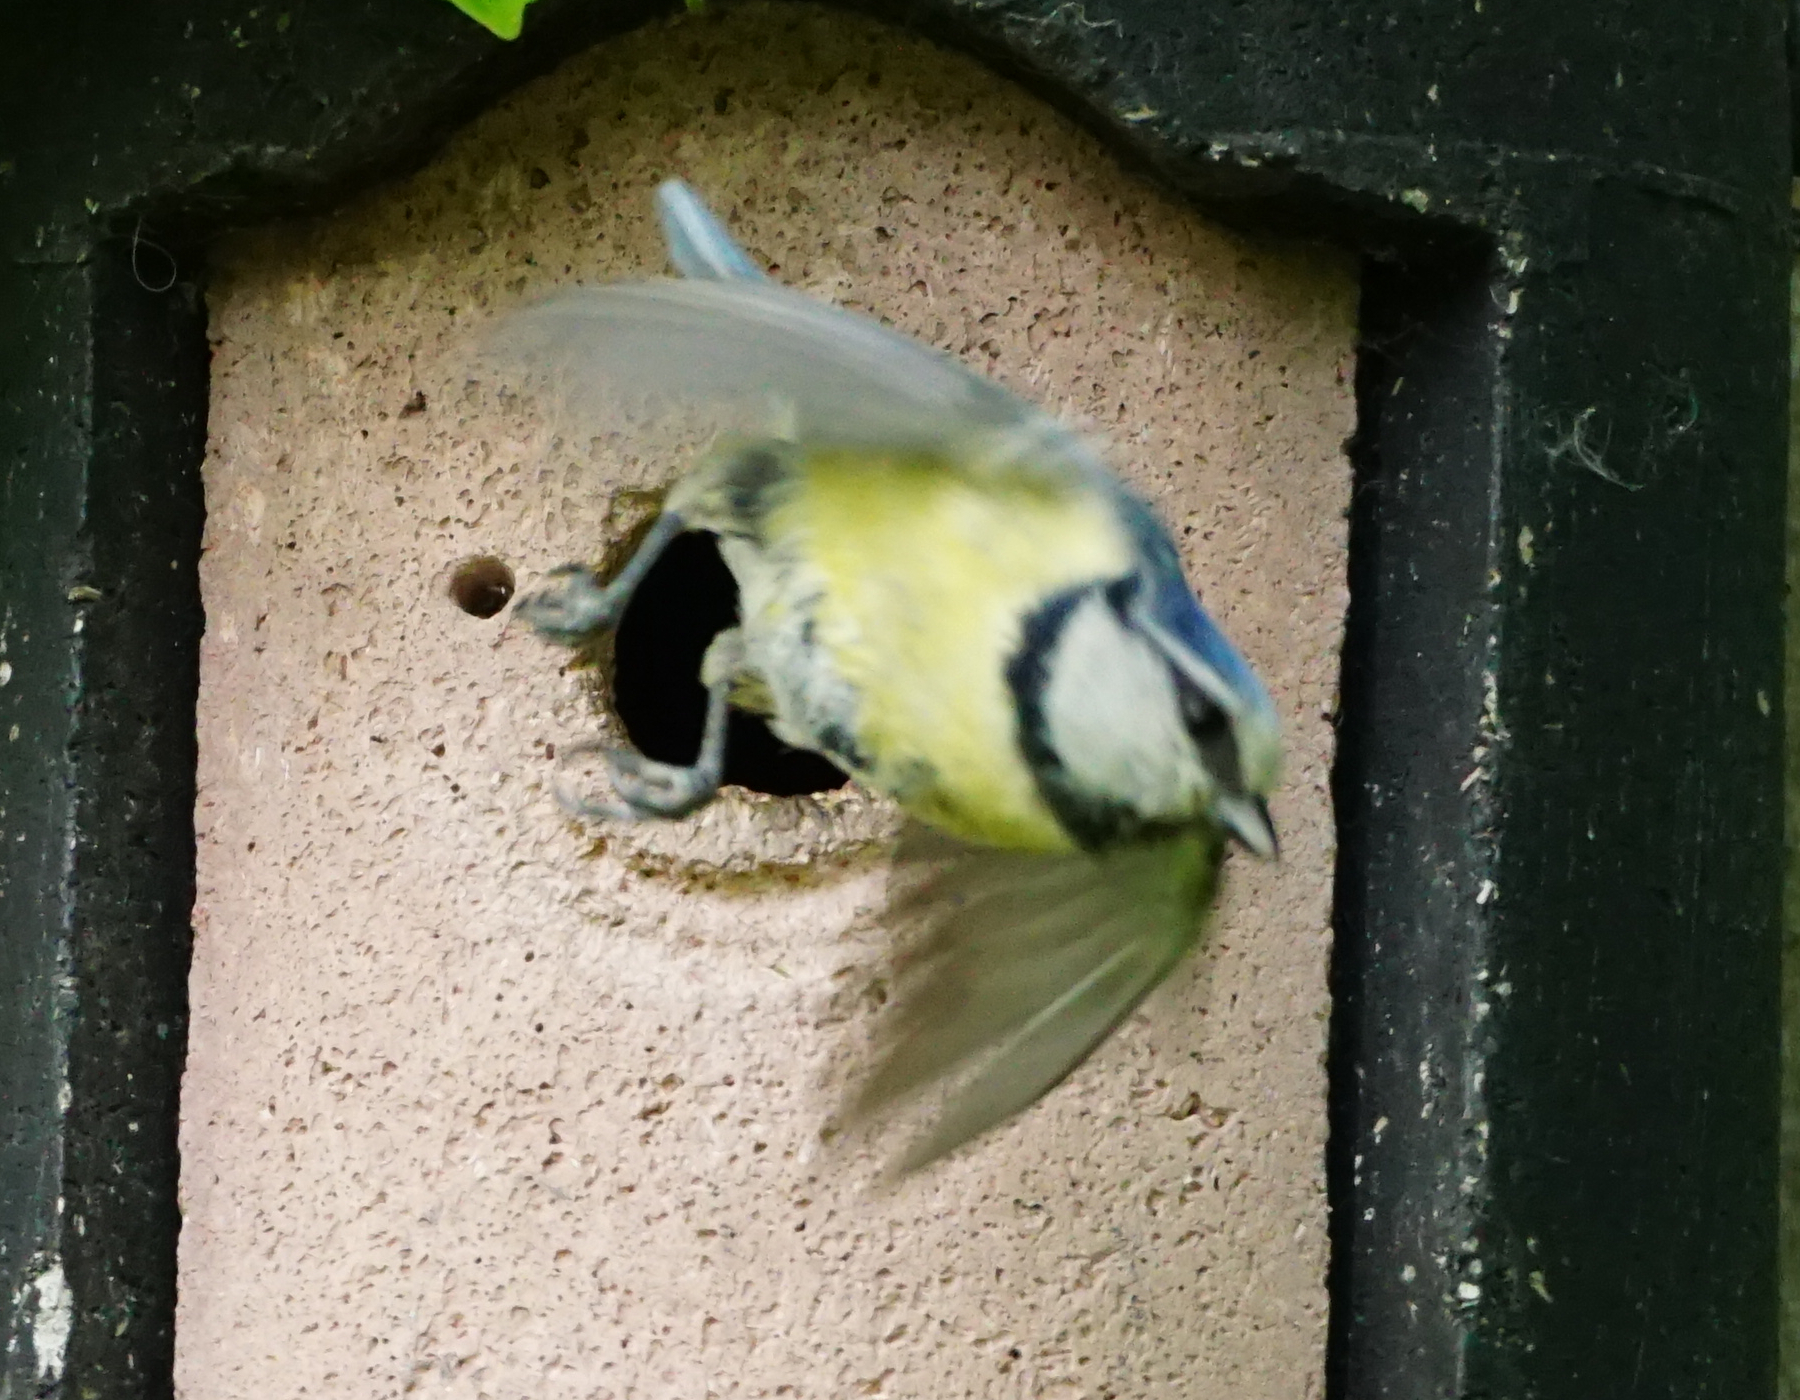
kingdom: Animalia
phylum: Chordata
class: Aves
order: Passeriformes
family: Paridae
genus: Cyanistes
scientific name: Cyanistes caeruleus
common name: Eurasian blue tit
